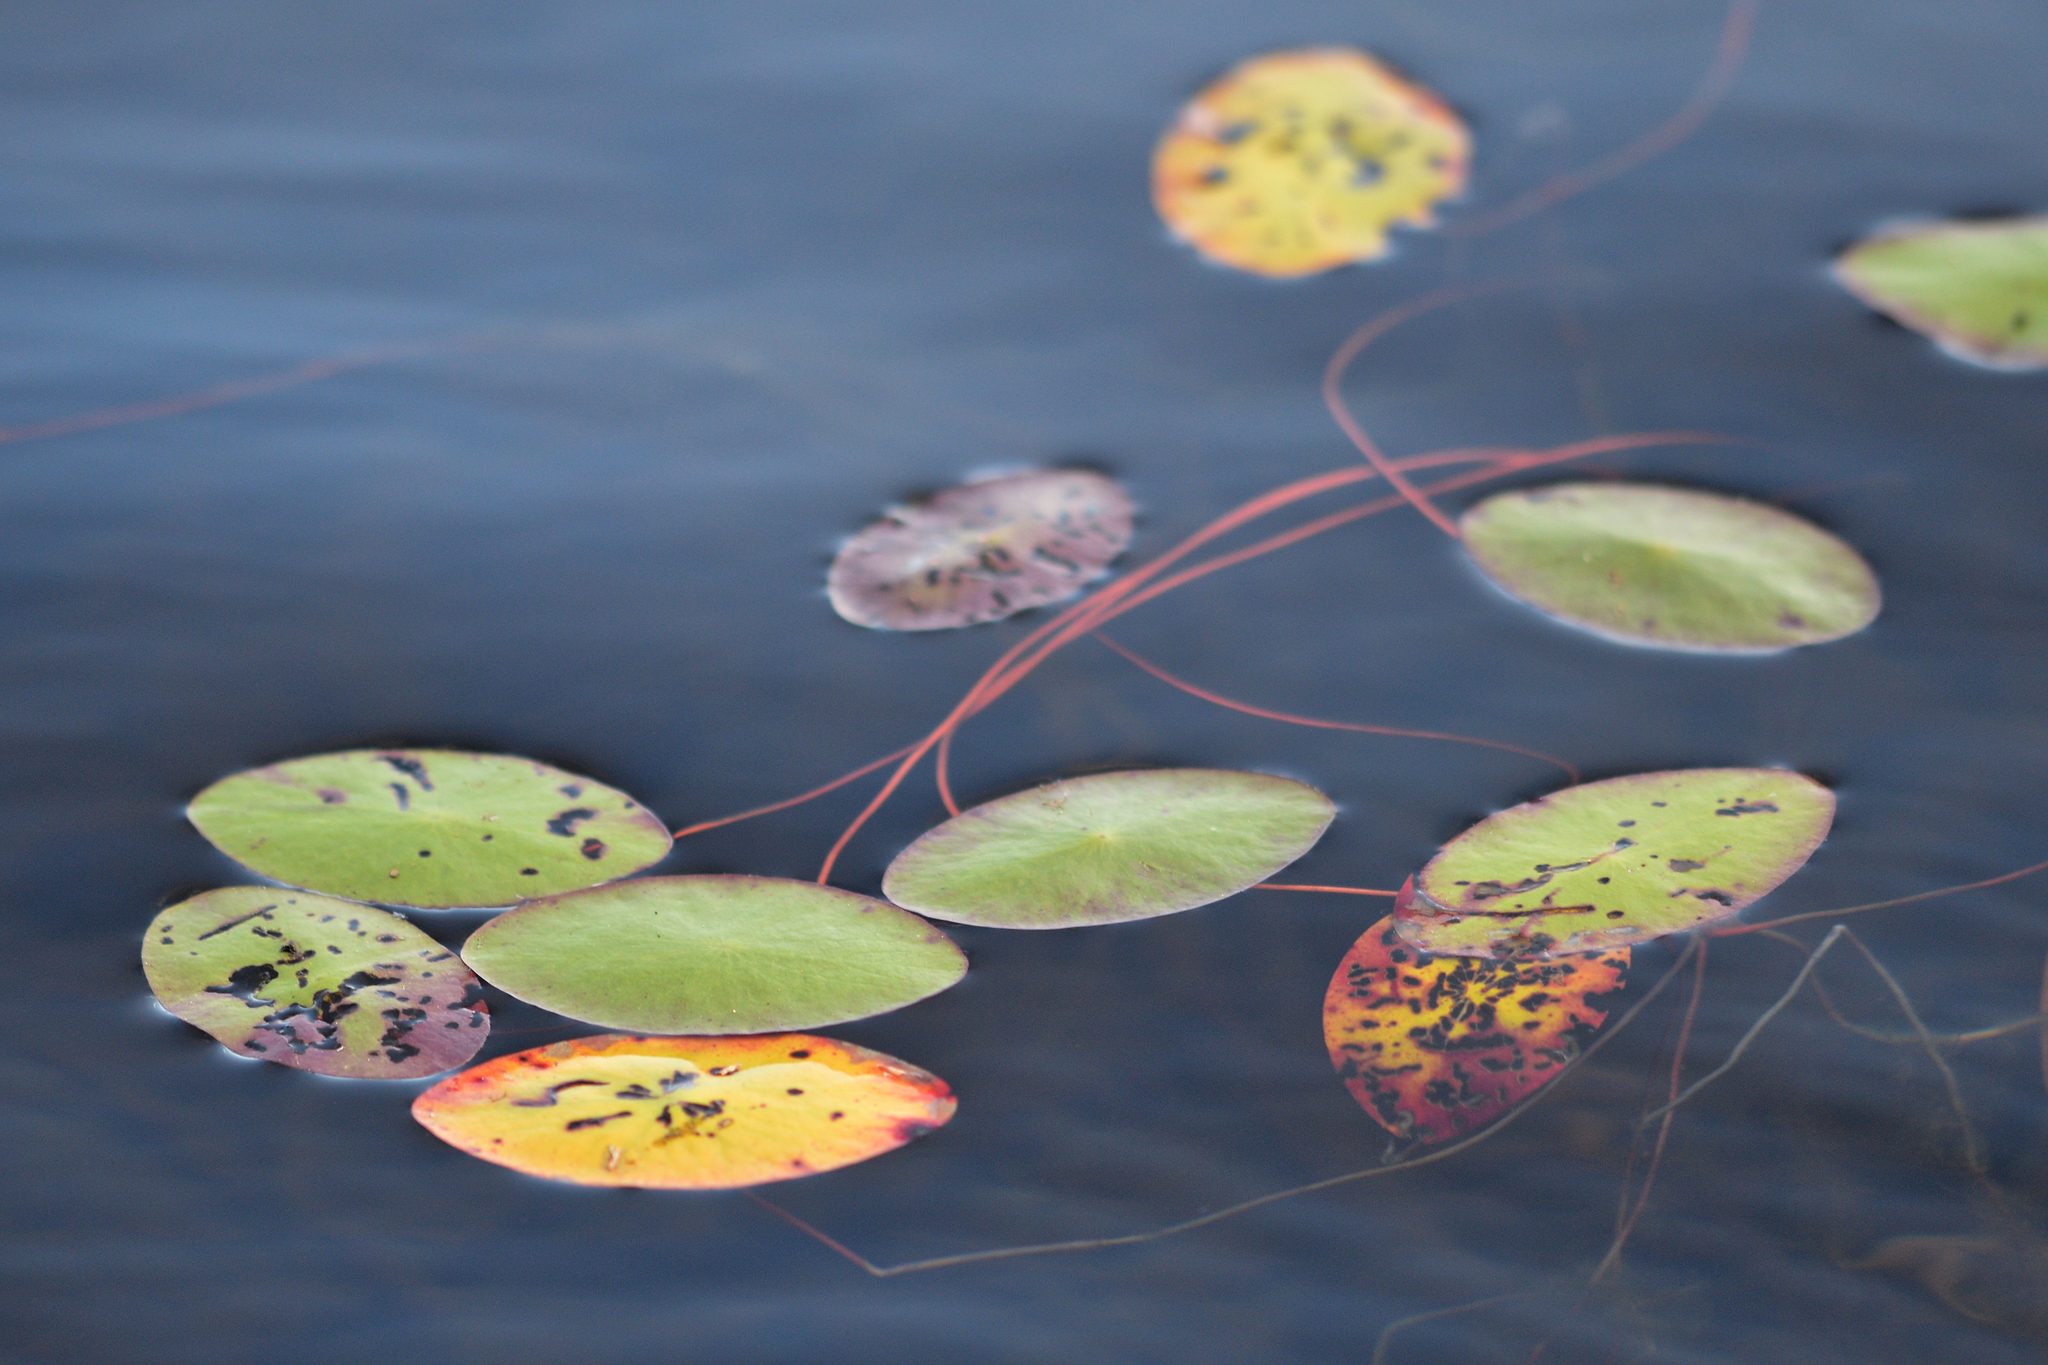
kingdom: Plantae
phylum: Tracheophyta
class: Magnoliopsida
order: Nymphaeales
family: Cabombaceae
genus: Brasenia
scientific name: Brasenia schreberi
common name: Water-shield
